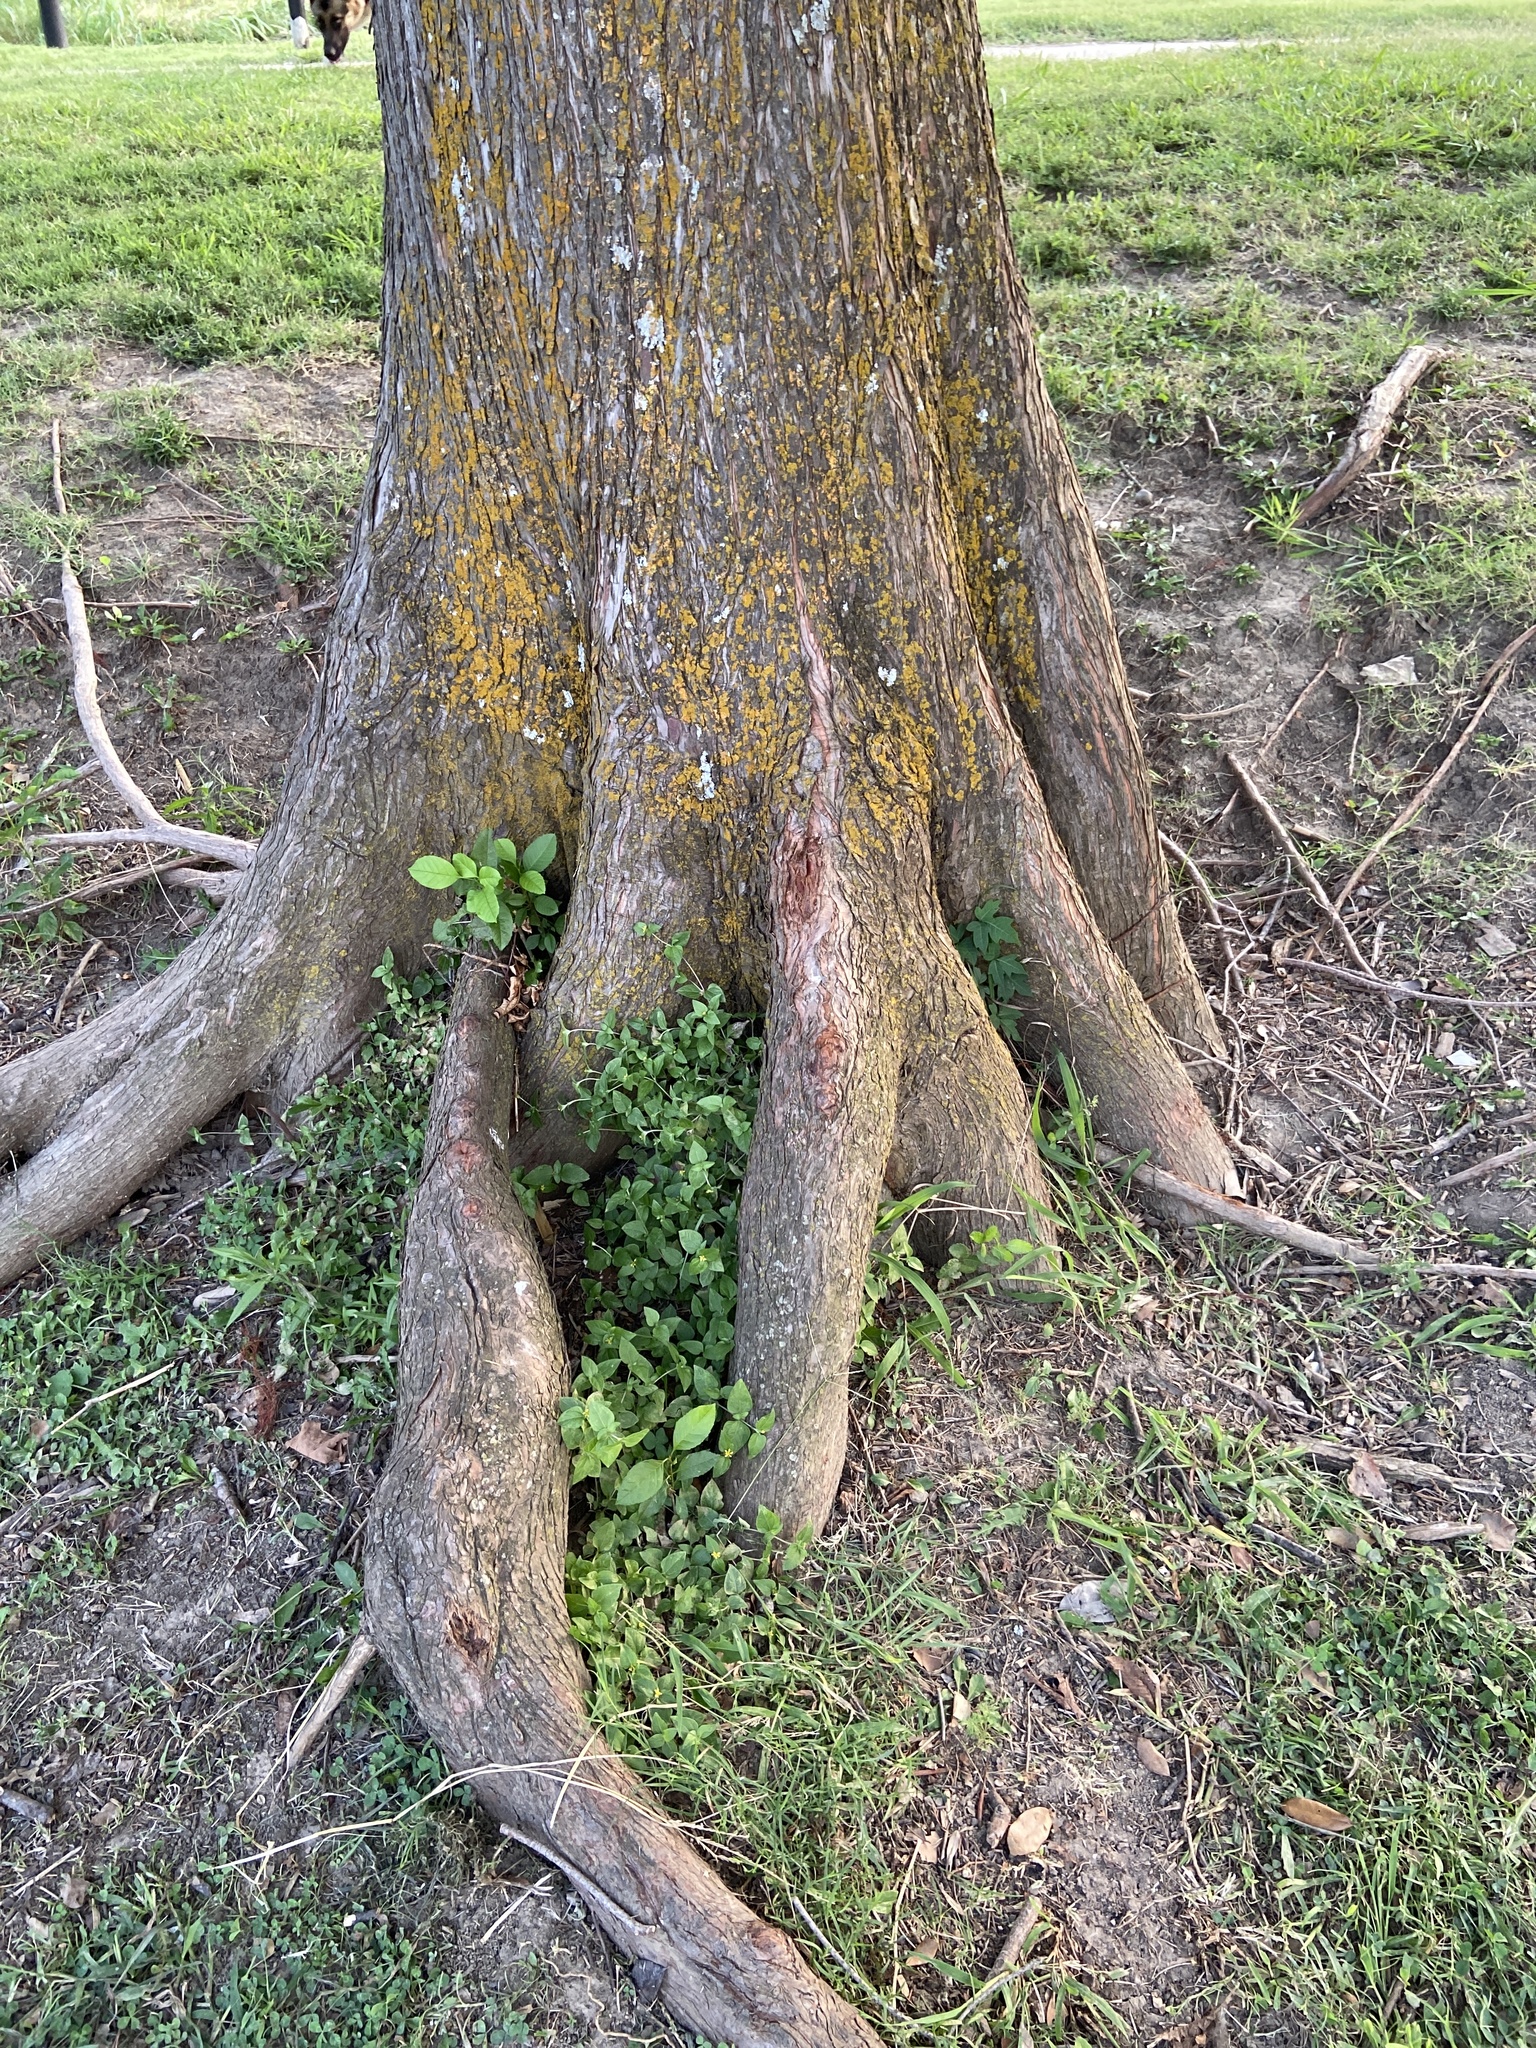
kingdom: Plantae
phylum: Tracheophyta
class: Pinopsida
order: Pinales
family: Cupressaceae
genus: Taxodium
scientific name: Taxodium distichum
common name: Bald cypress
